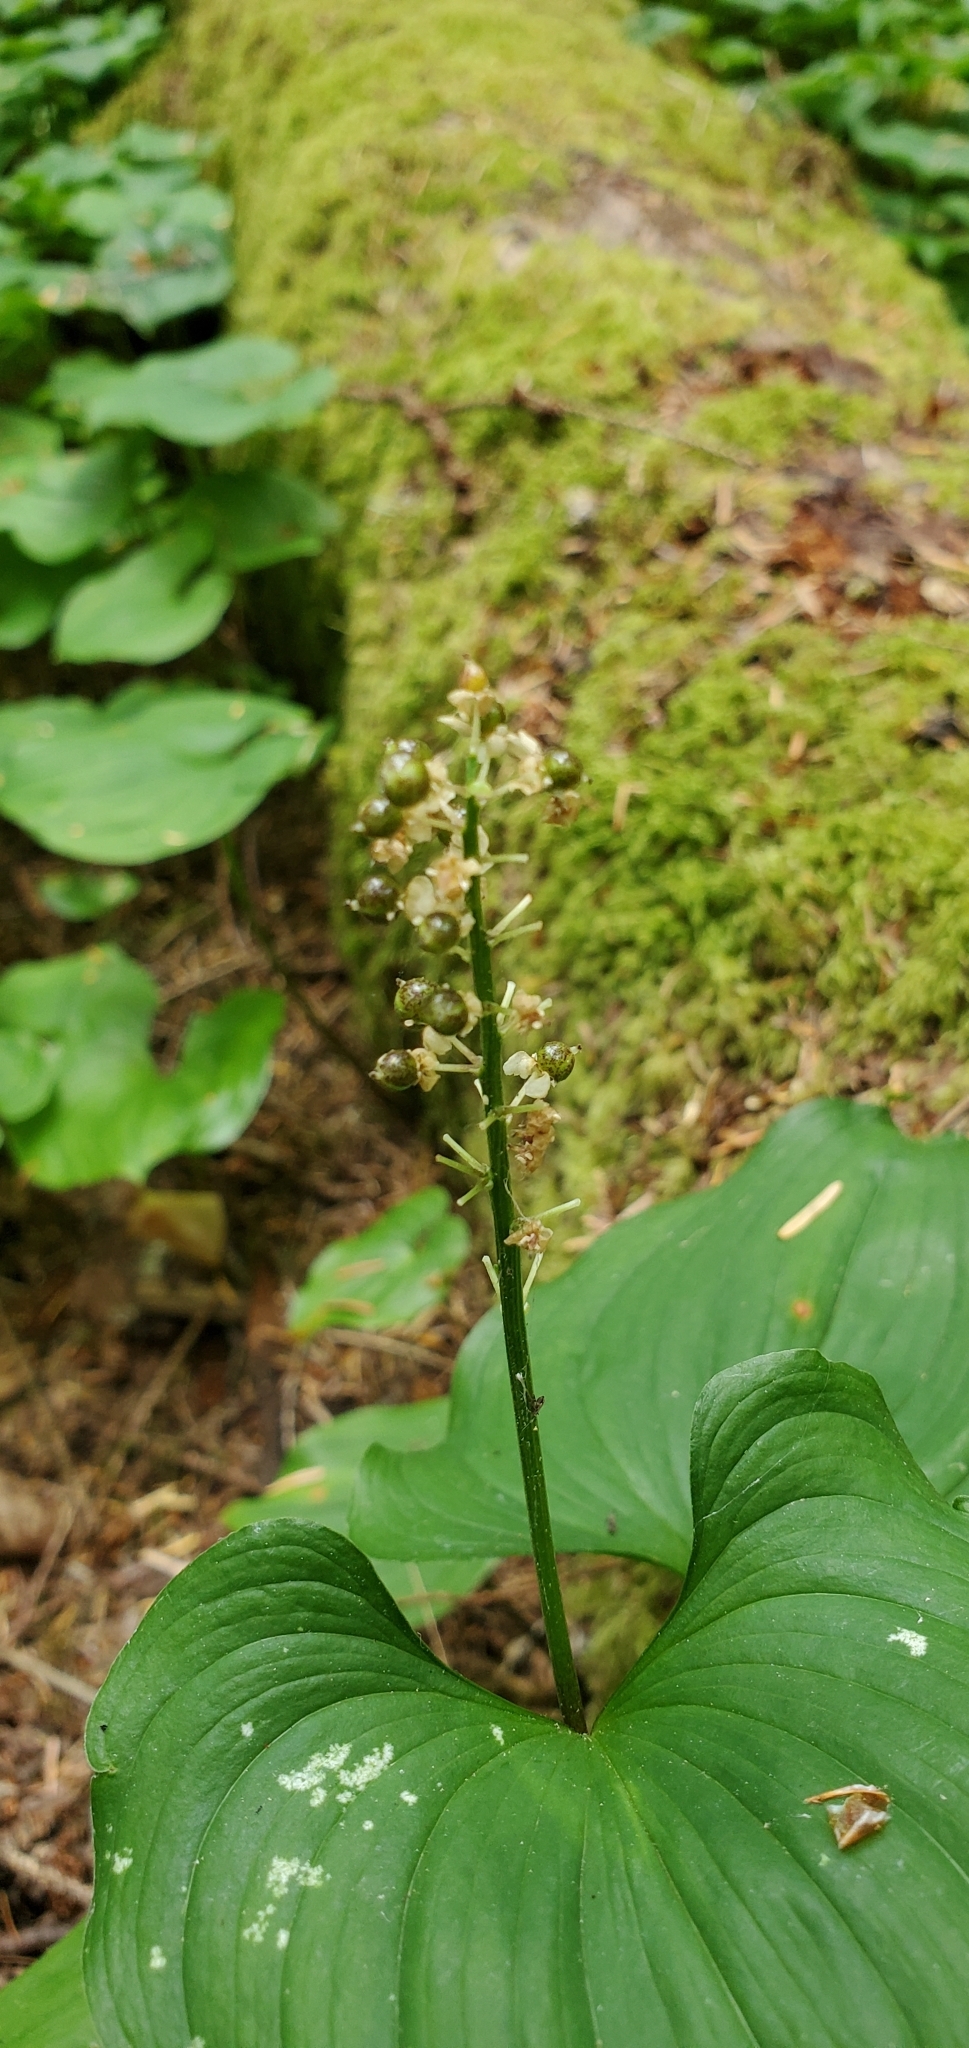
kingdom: Plantae
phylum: Tracheophyta
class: Liliopsida
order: Asparagales
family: Asparagaceae
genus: Maianthemum
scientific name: Maianthemum dilatatum
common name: False lily-of-the-valley
